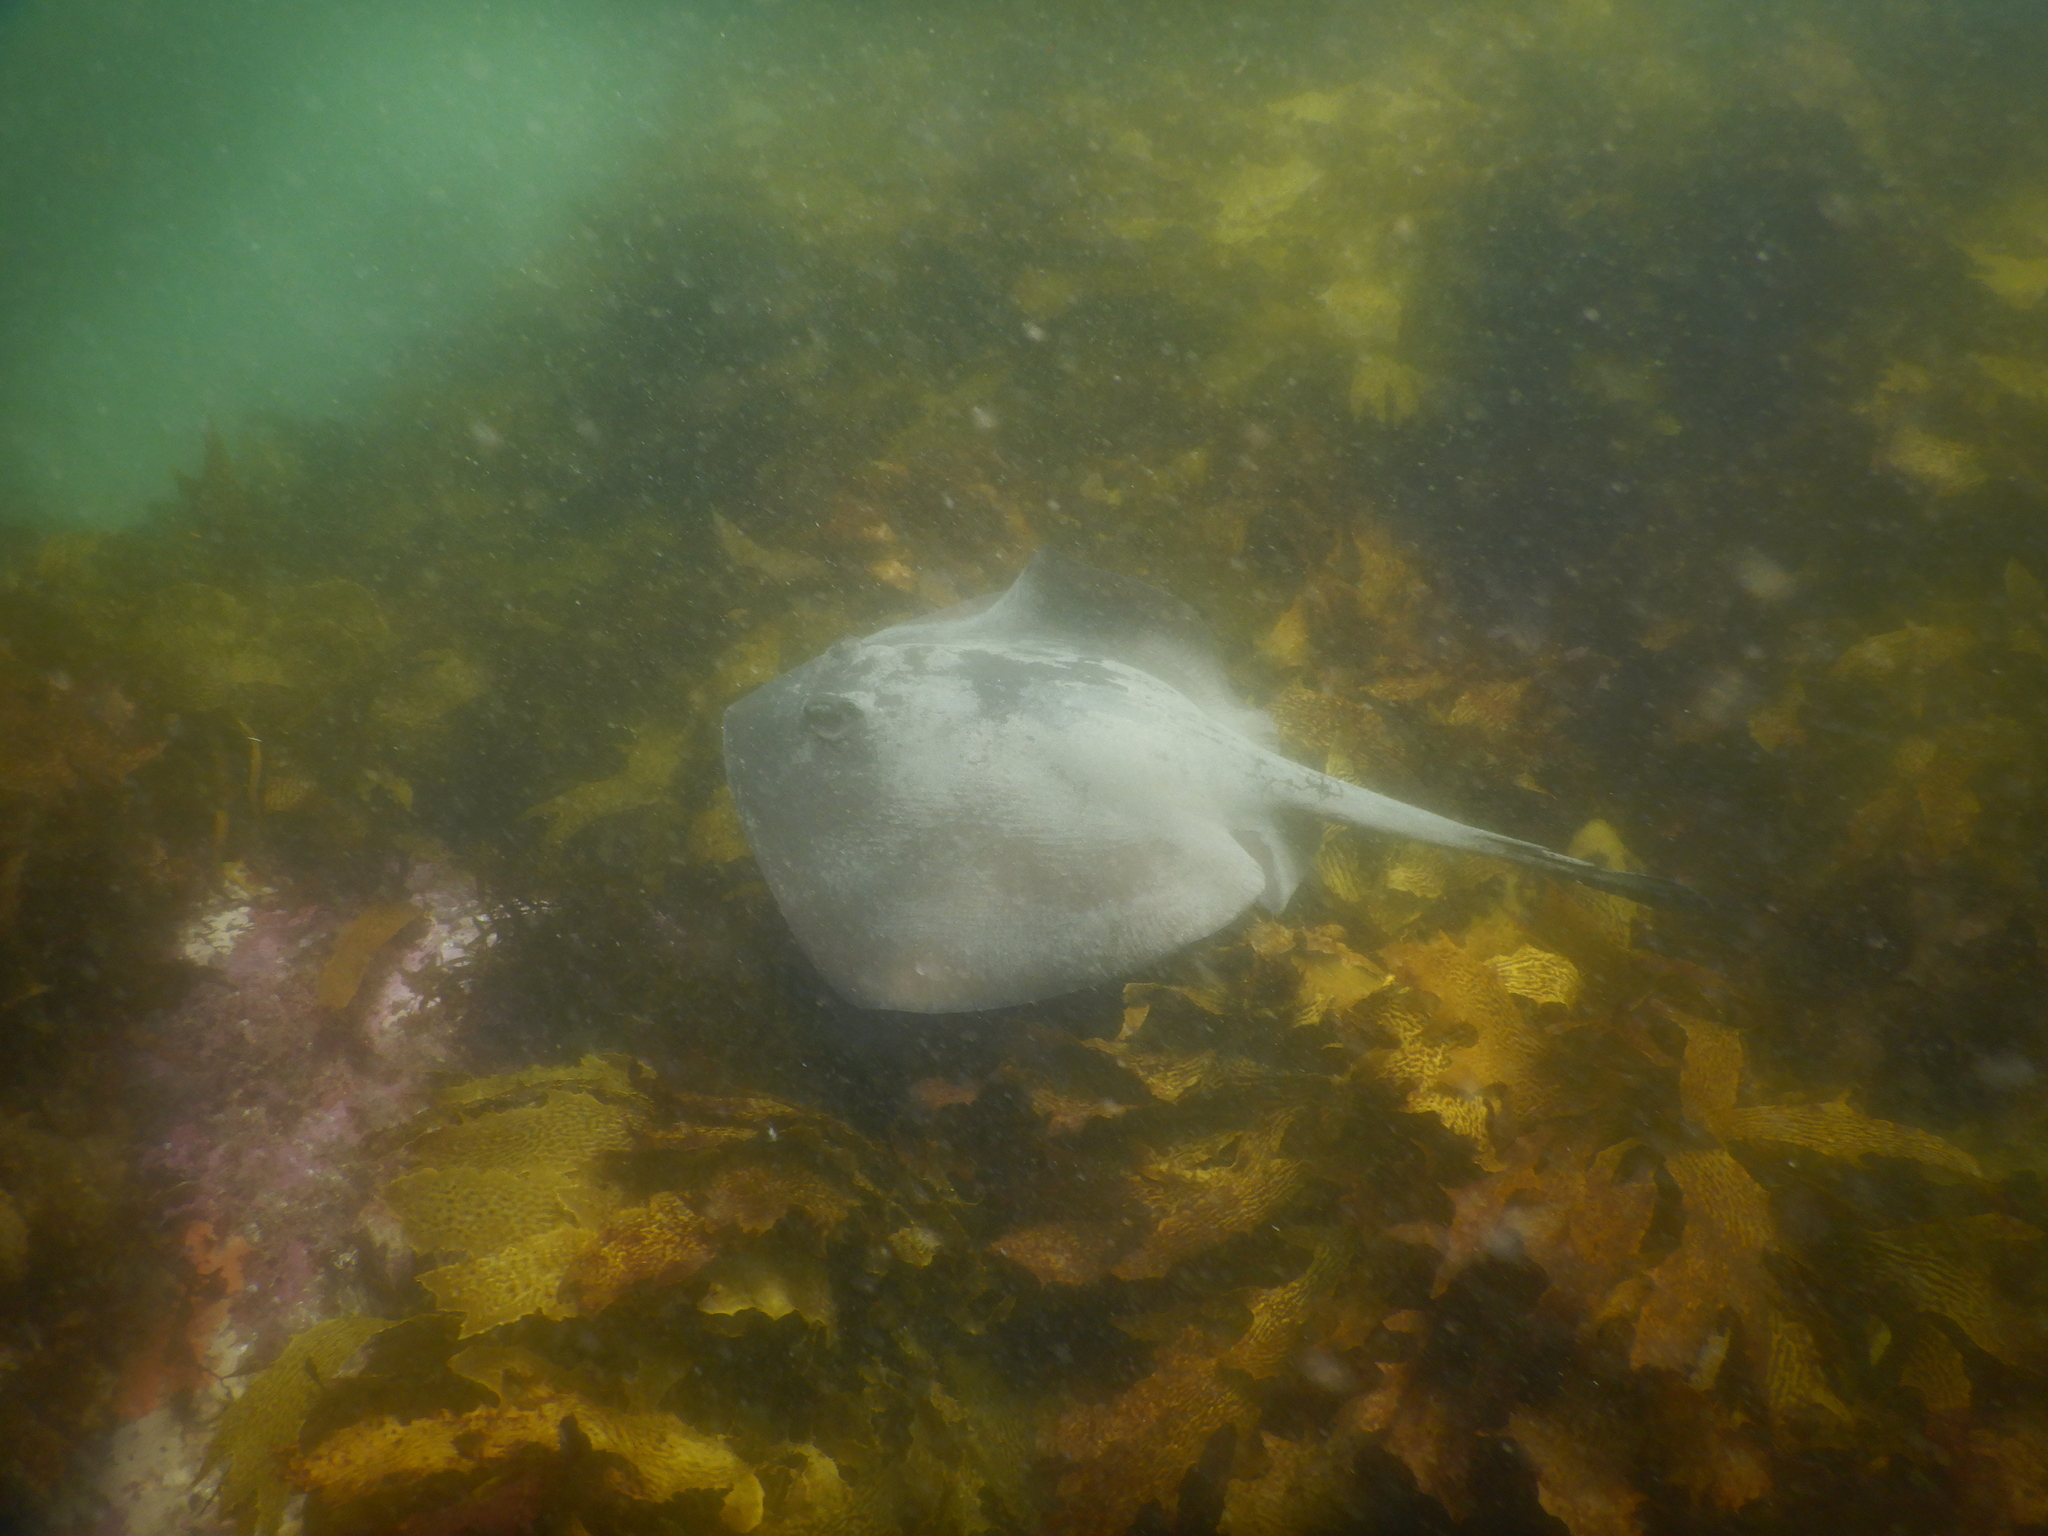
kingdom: Animalia
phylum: Chordata
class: Elasmobranchii
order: Myliobatiformes
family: Urolophidae
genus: Trygonoptera
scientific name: Trygonoptera testacea
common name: Common stingaree
